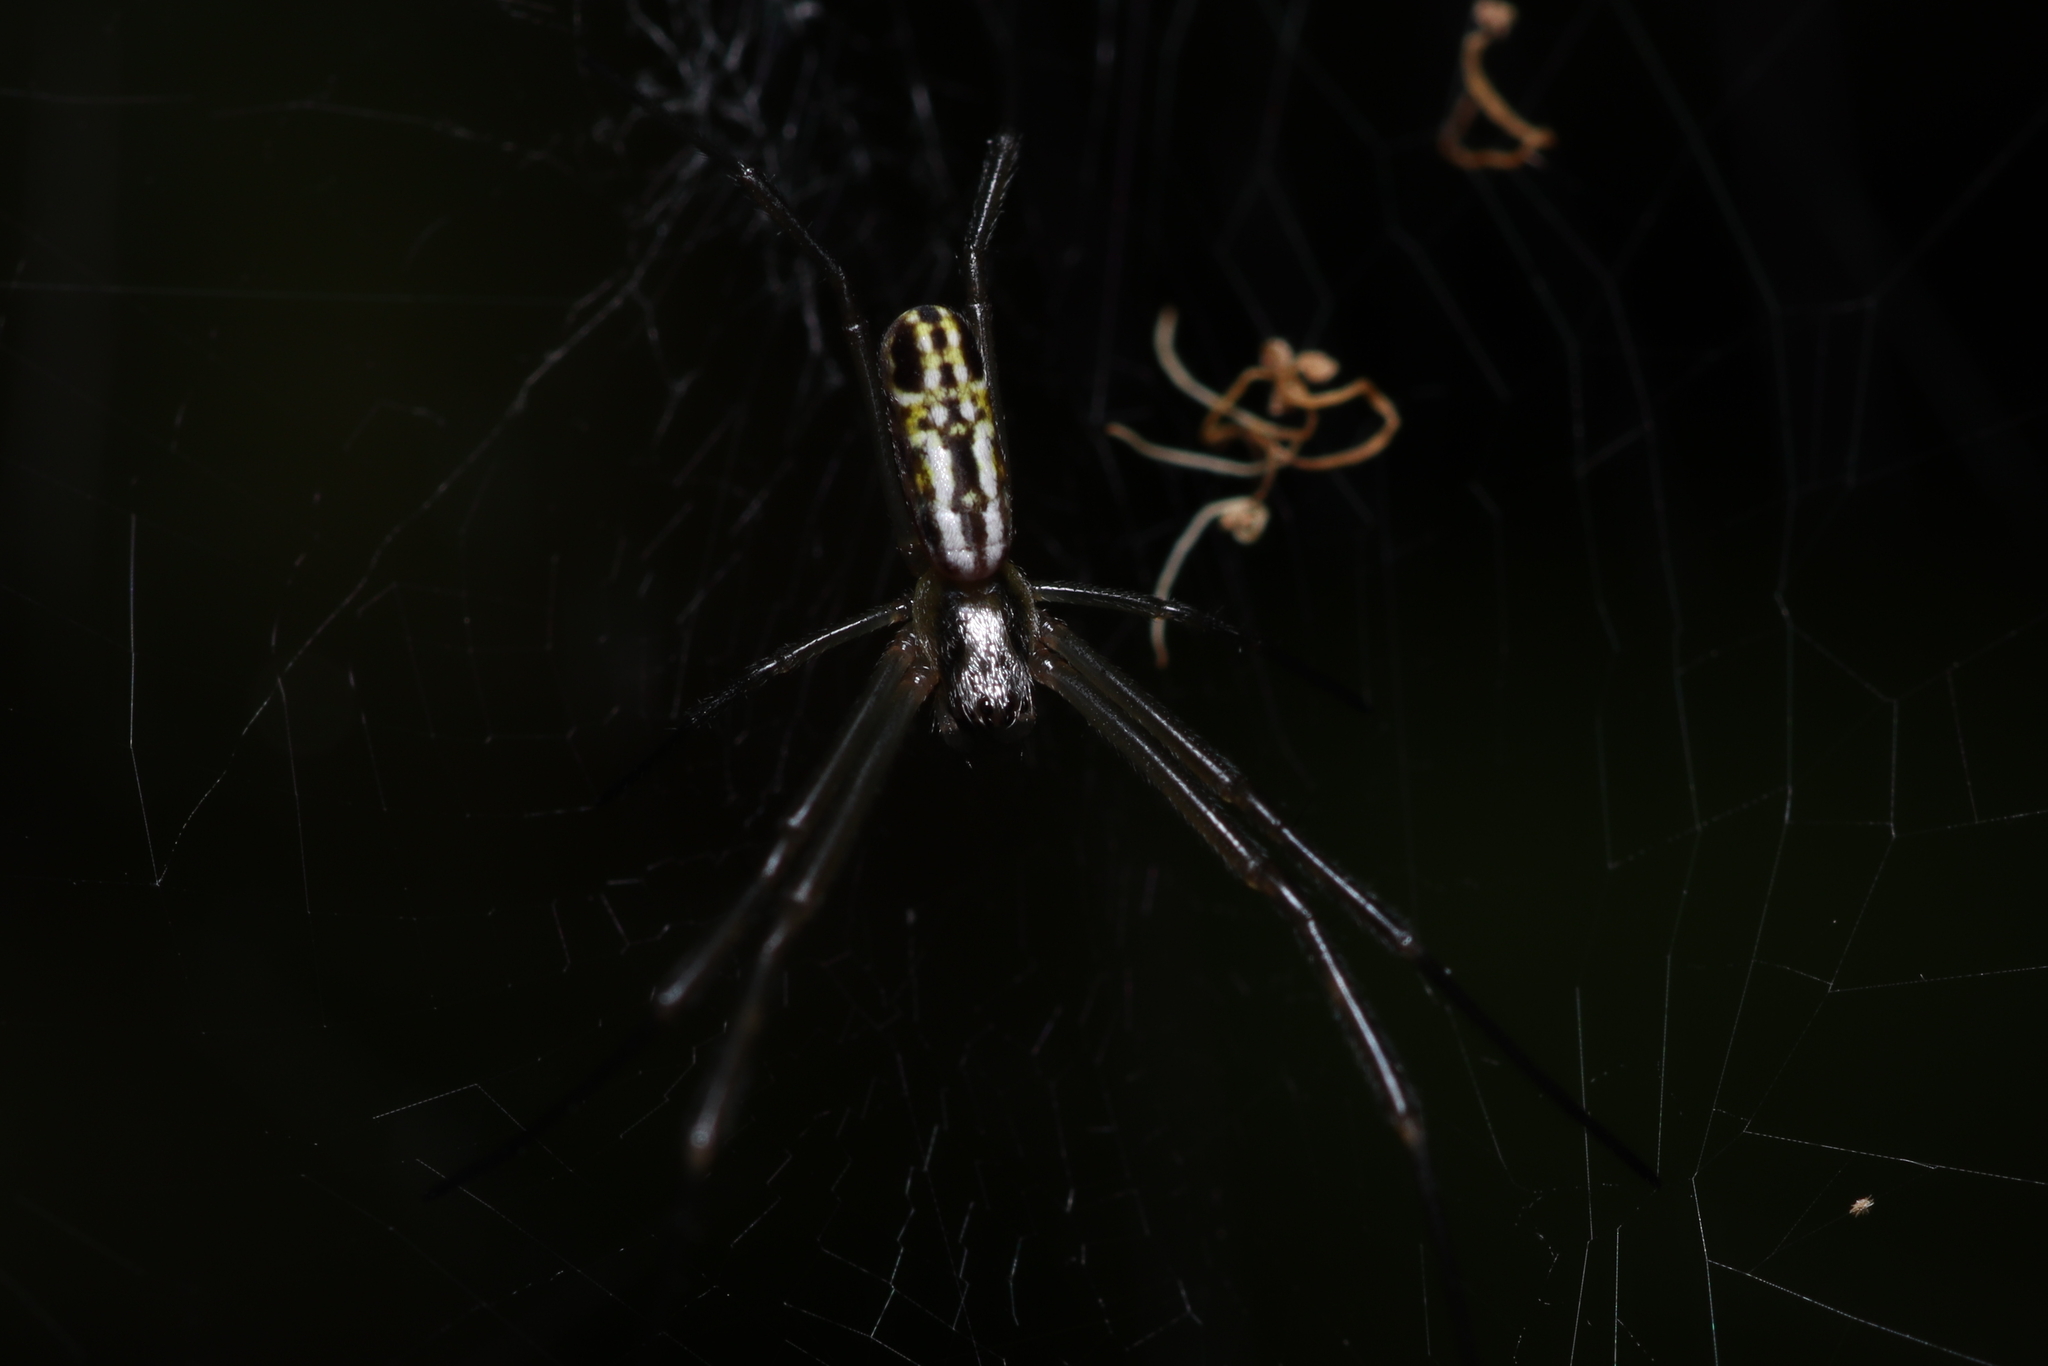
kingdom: Animalia
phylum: Arthropoda
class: Arachnida
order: Araneae
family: Araneidae
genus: Trichonephila
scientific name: Trichonephila clavipes
